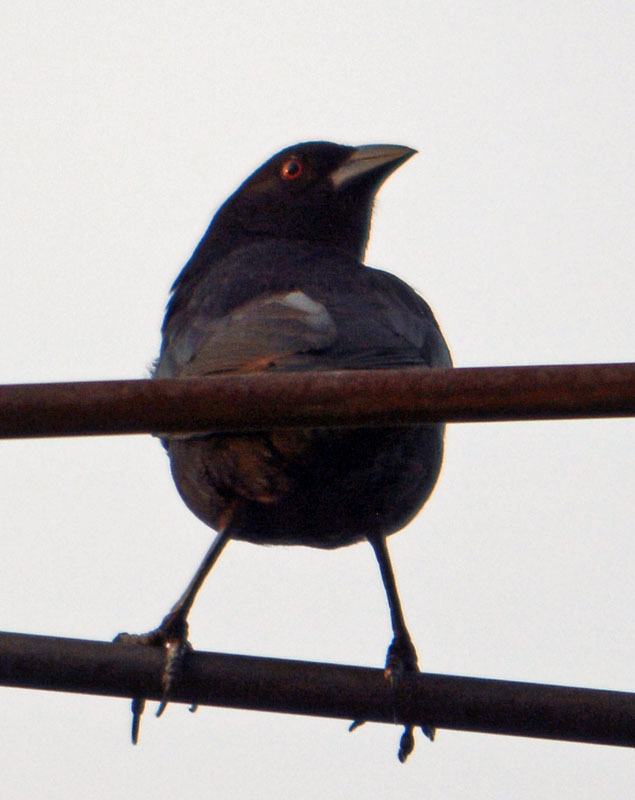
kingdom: Animalia
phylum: Chordata
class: Aves
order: Passeriformes
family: Icteridae
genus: Molothrus
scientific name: Molothrus aeneus
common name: Bronzed cowbird
